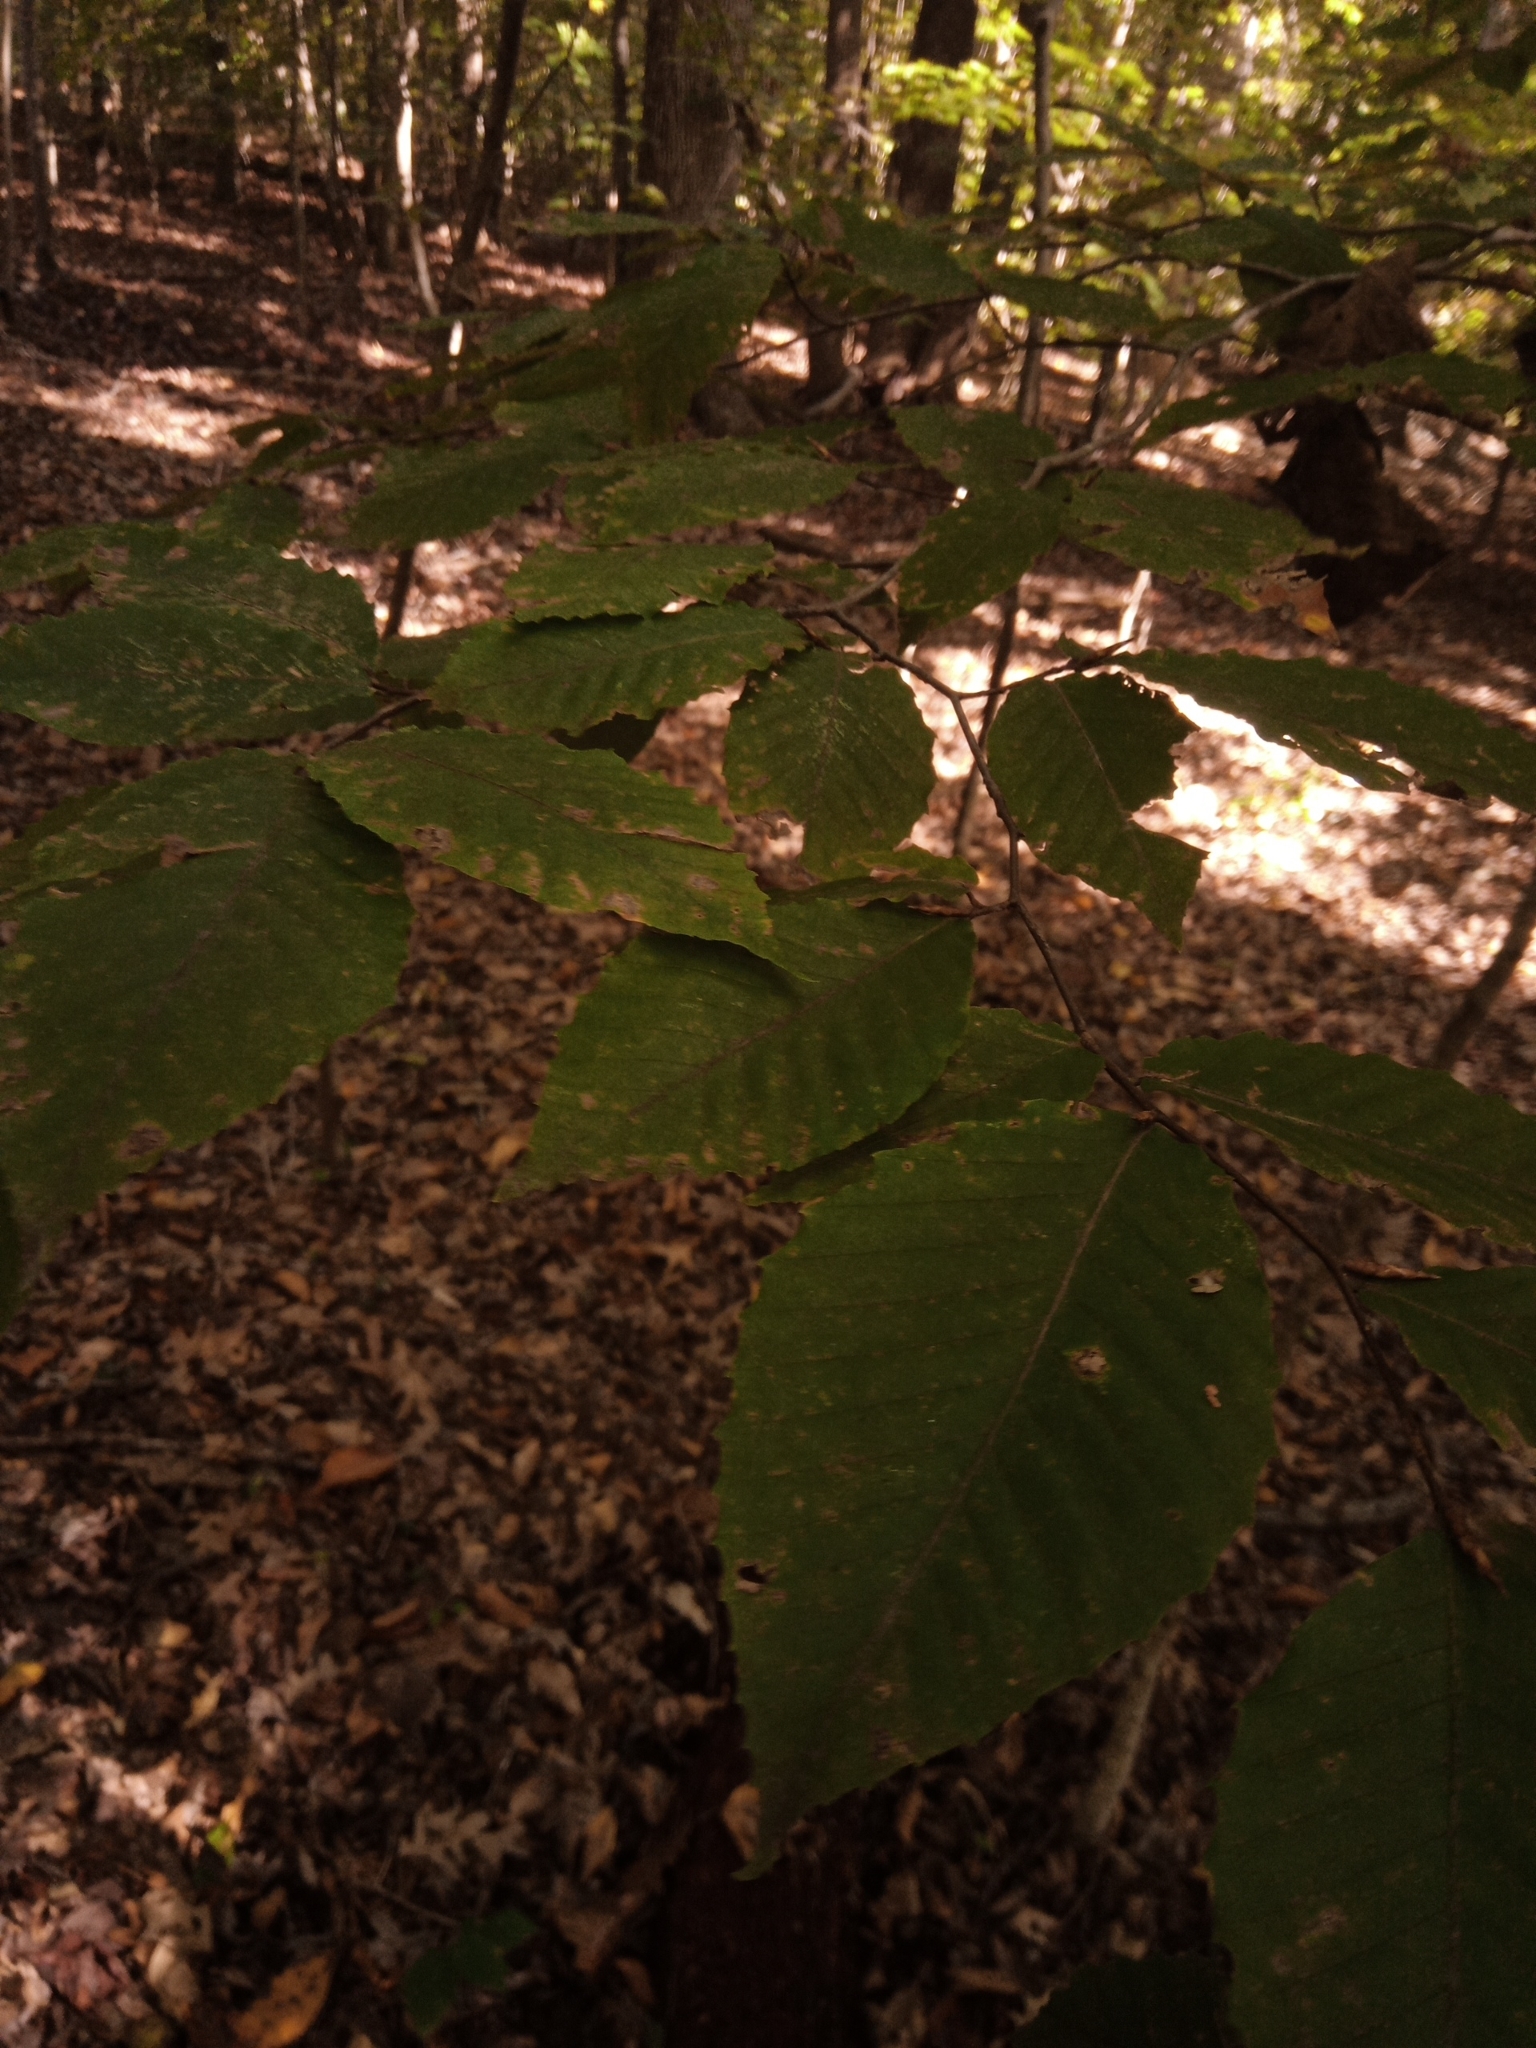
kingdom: Plantae
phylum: Tracheophyta
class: Magnoliopsida
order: Fagales
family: Fagaceae
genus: Fagus
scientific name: Fagus grandifolia
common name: American beech
